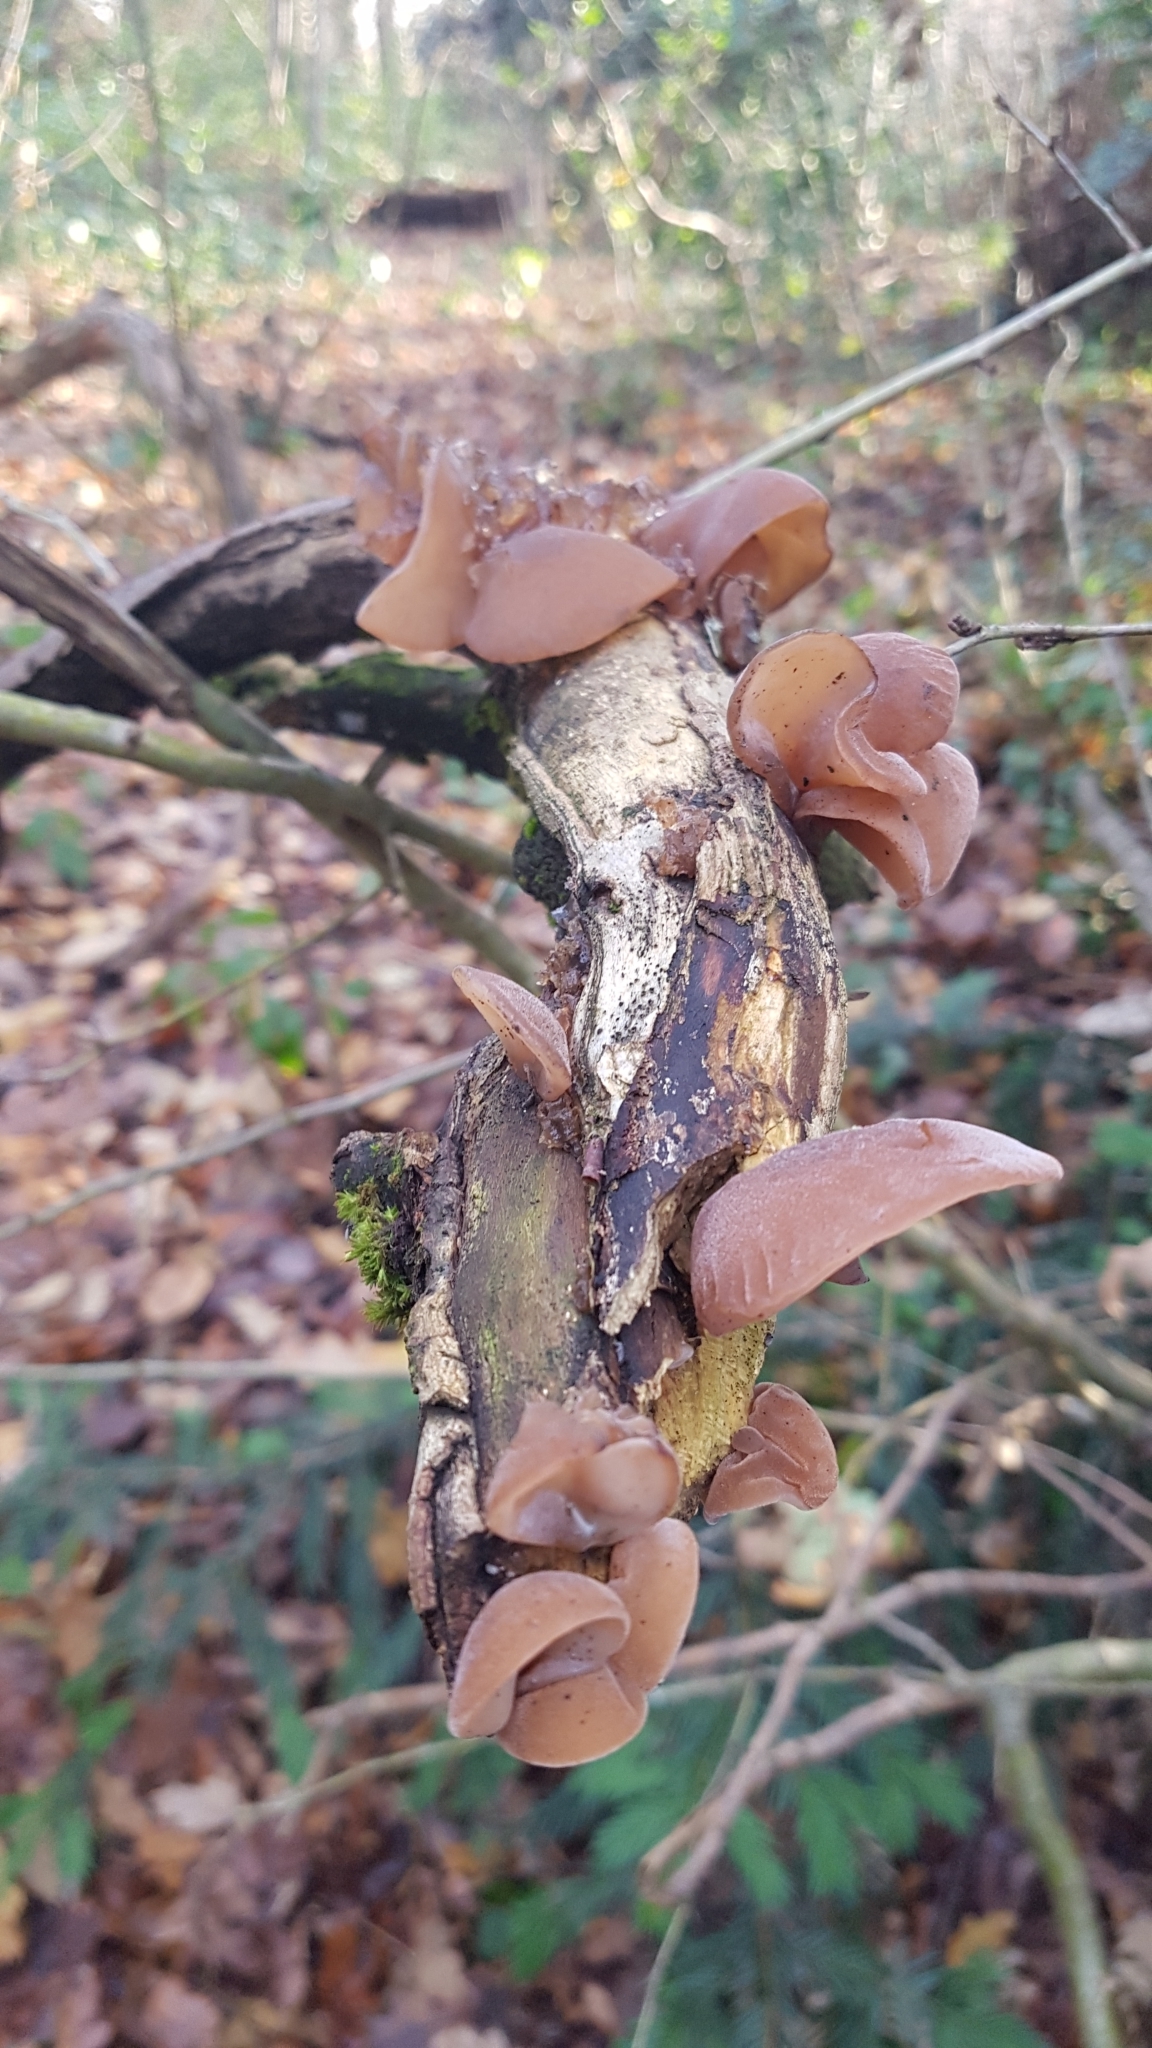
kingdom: Fungi
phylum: Basidiomycota
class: Agaricomycetes
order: Auriculariales
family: Auriculariaceae
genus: Auricularia
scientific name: Auricularia auricula-judae
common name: Jelly ear
